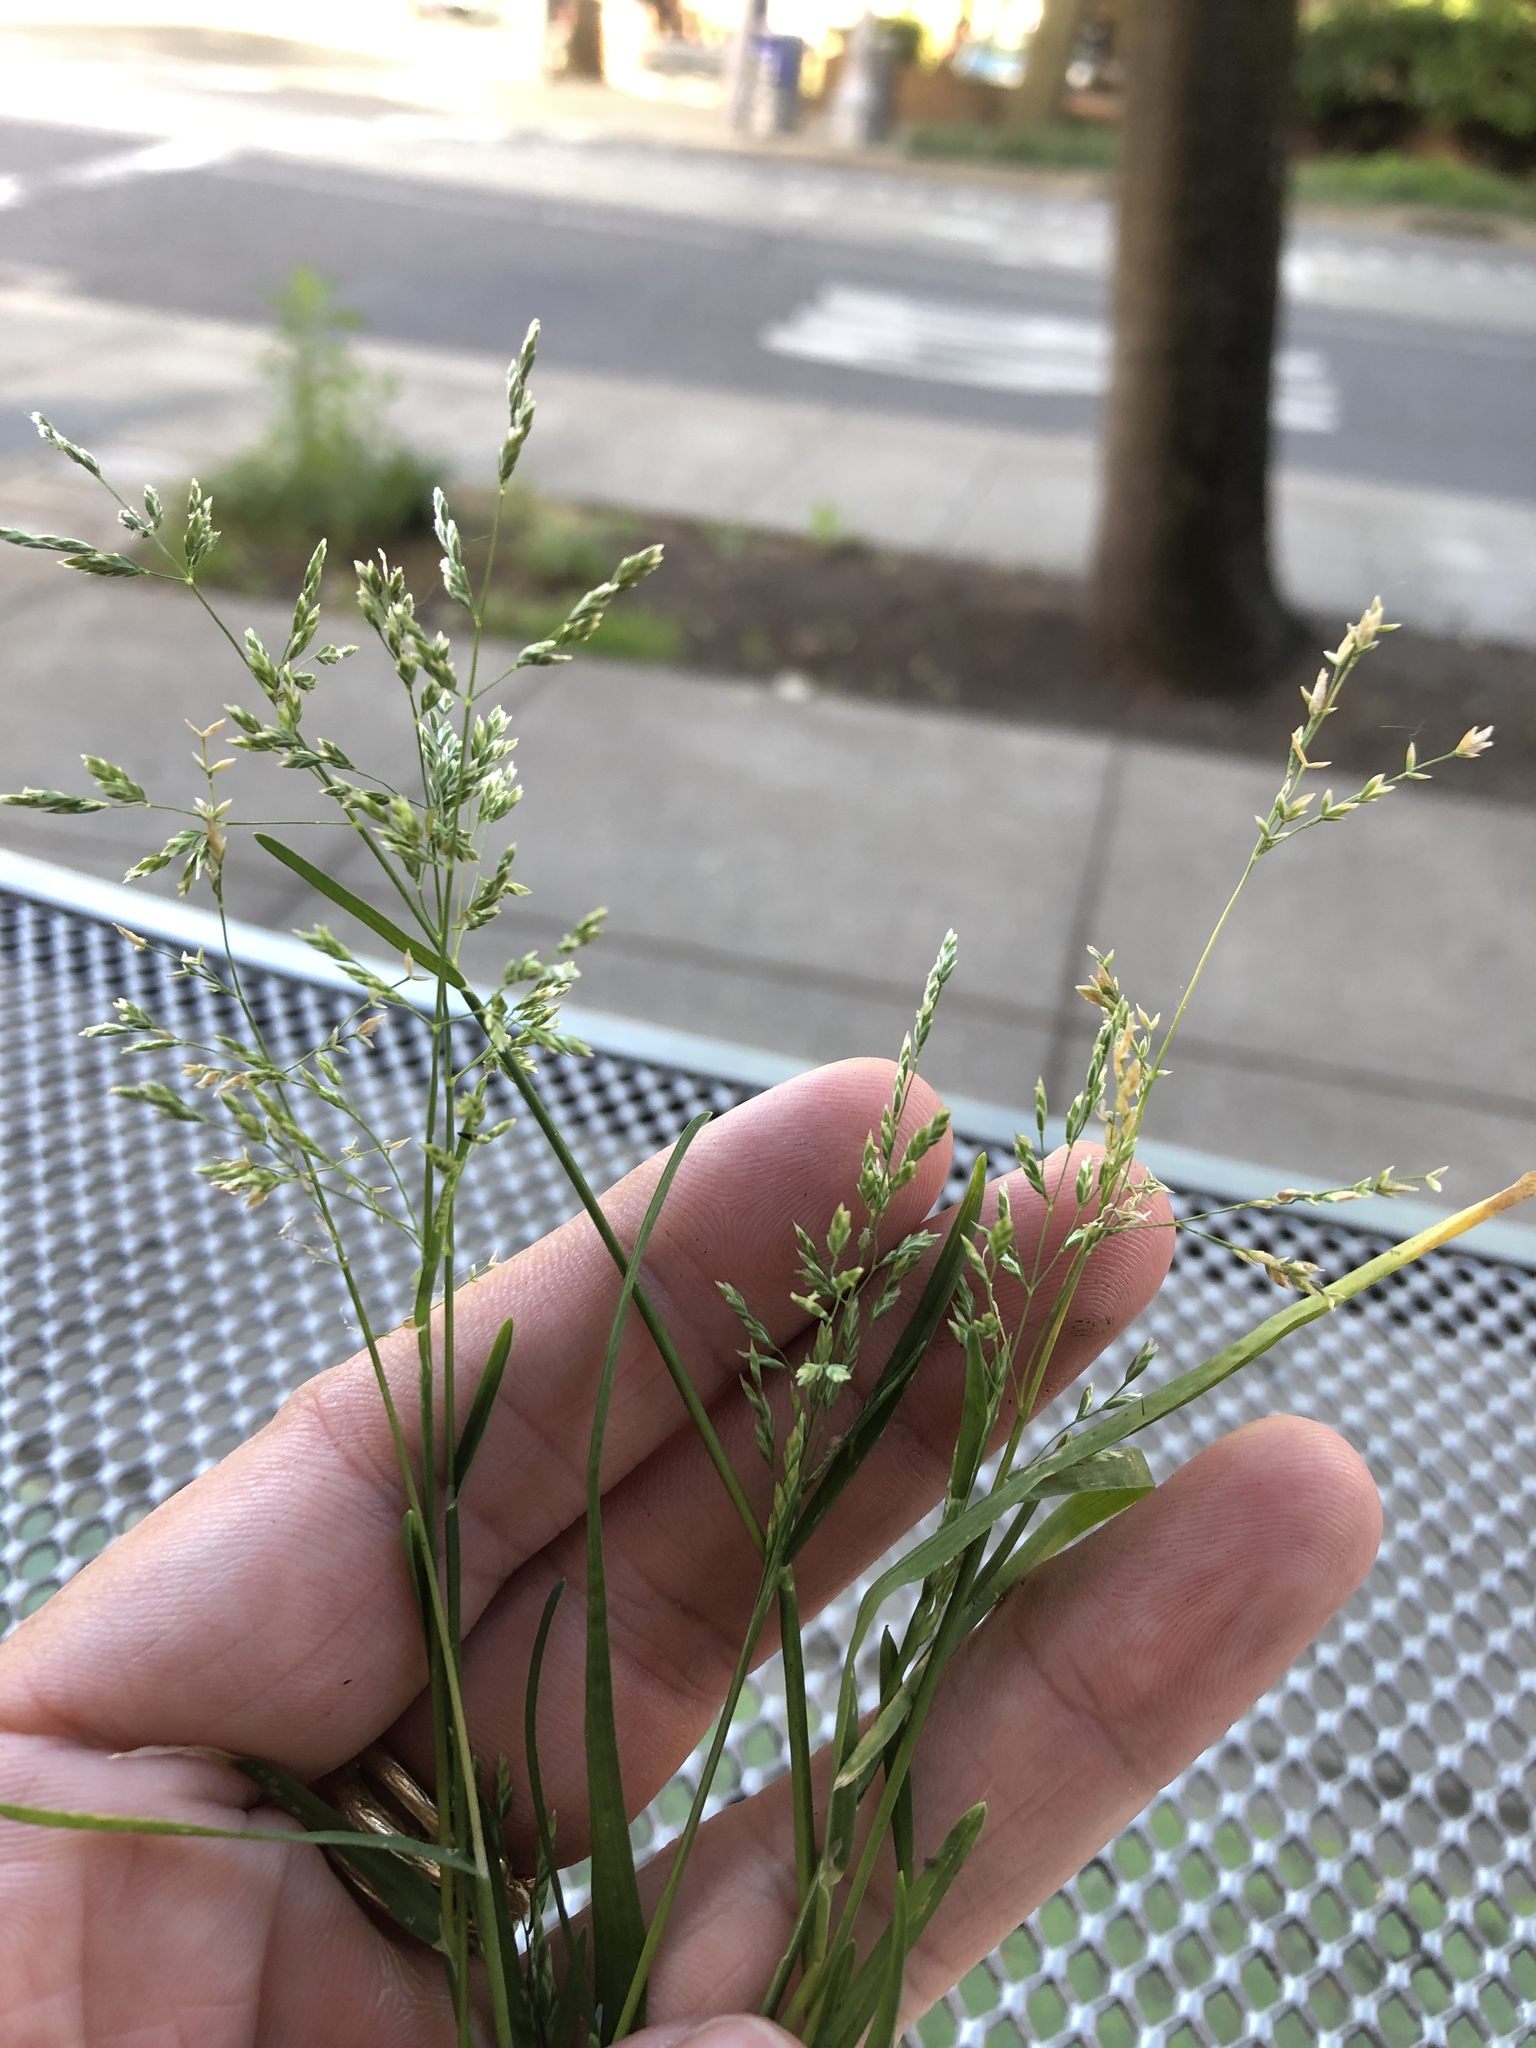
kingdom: Plantae
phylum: Tracheophyta
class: Liliopsida
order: Poales
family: Poaceae
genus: Poa
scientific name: Poa annua
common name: Annual bluegrass
